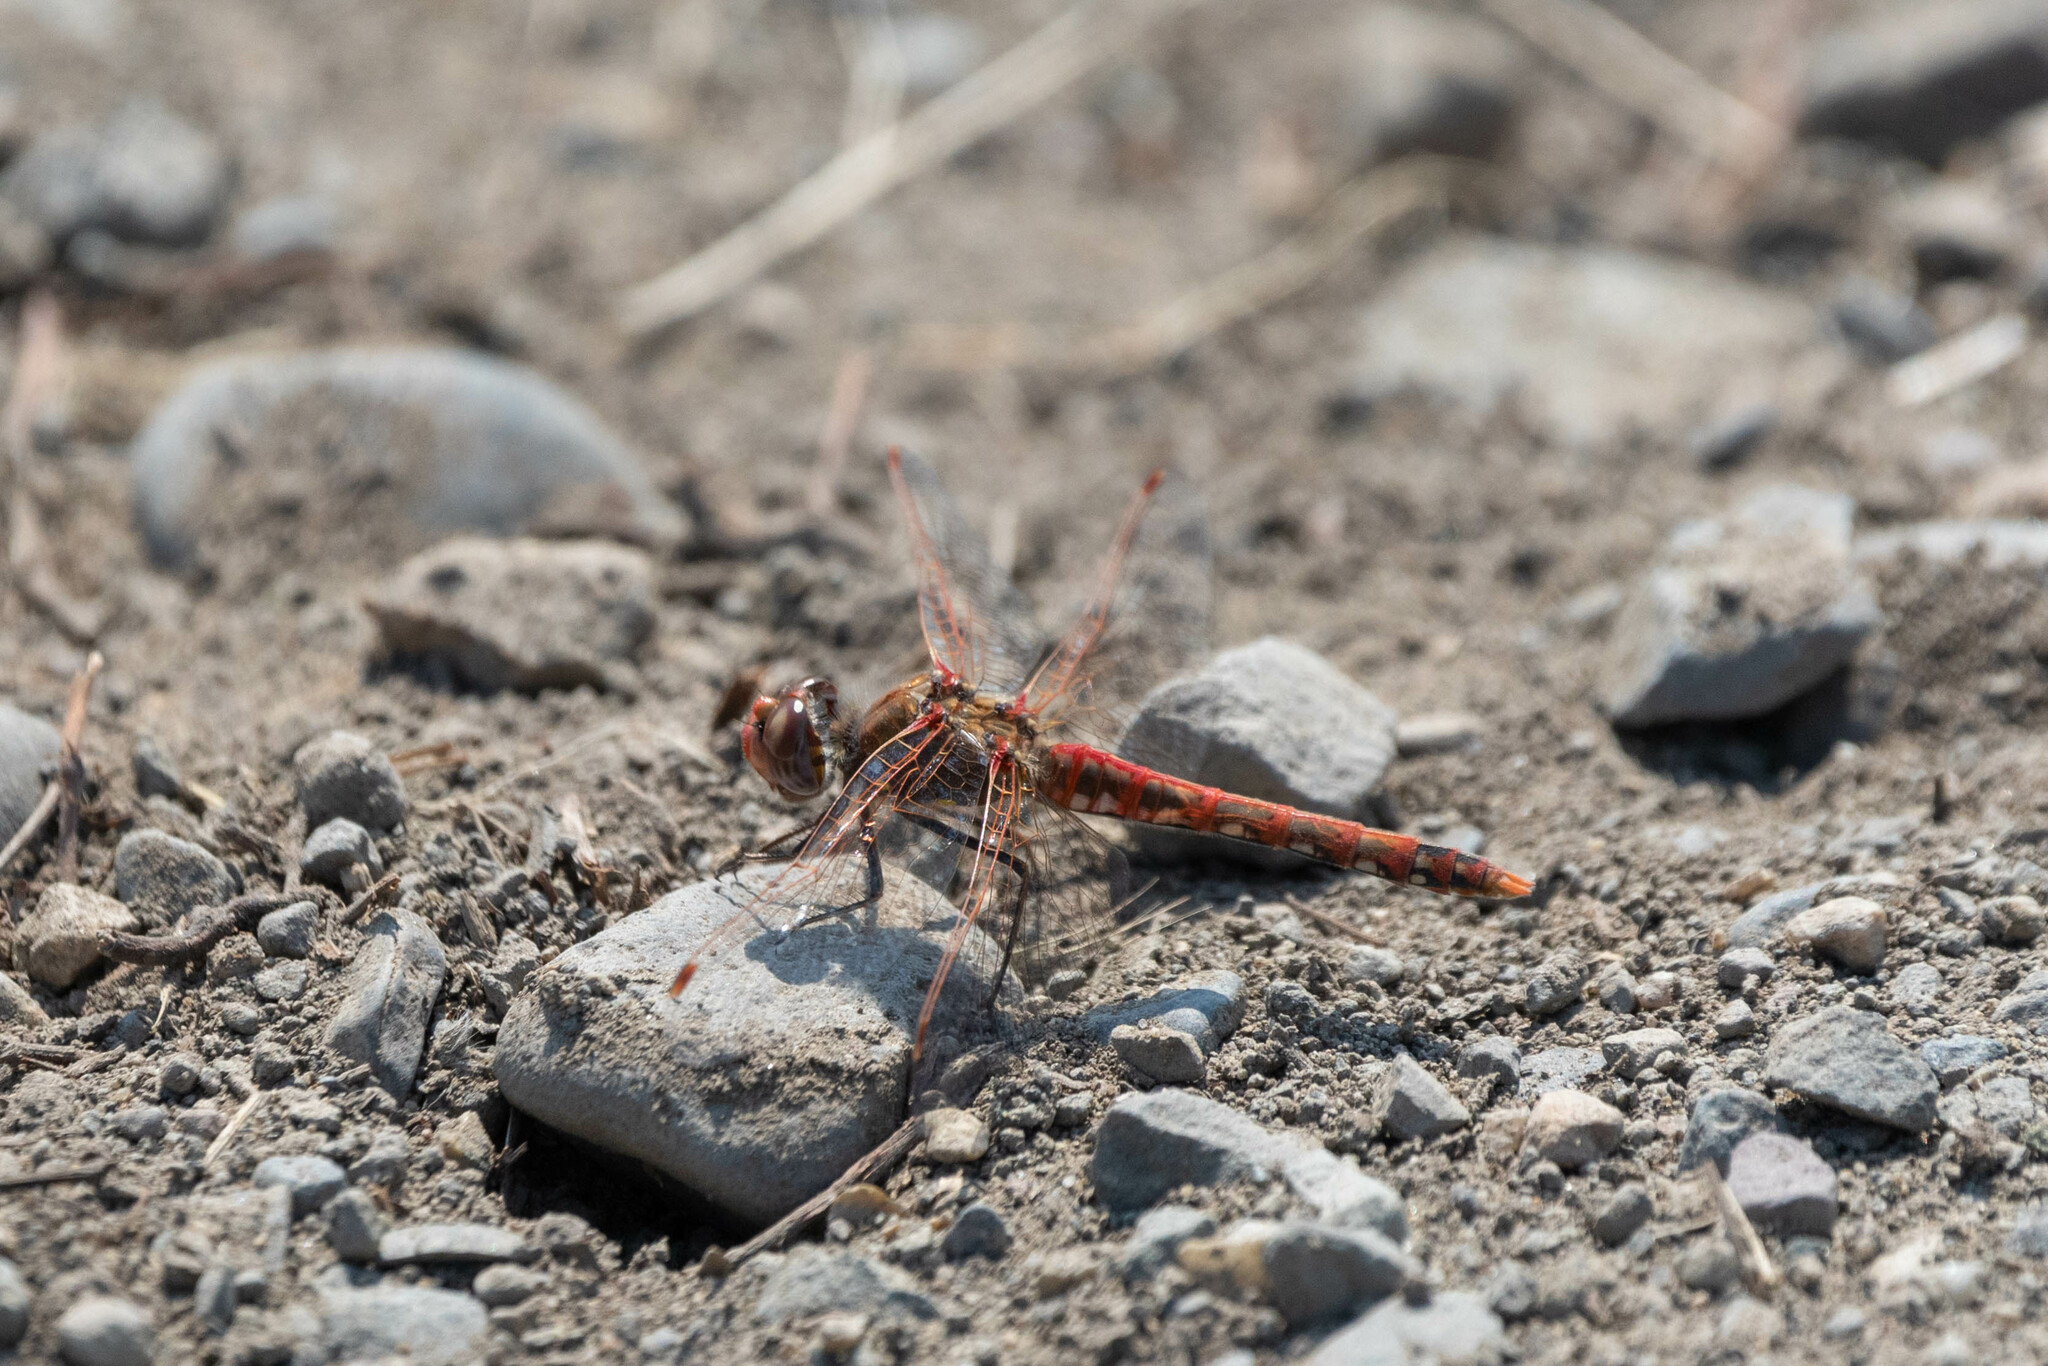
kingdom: Animalia
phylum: Arthropoda
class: Insecta
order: Odonata
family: Libellulidae
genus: Sympetrum
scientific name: Sympetrum corruptum
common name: Variegated meadowhawk
